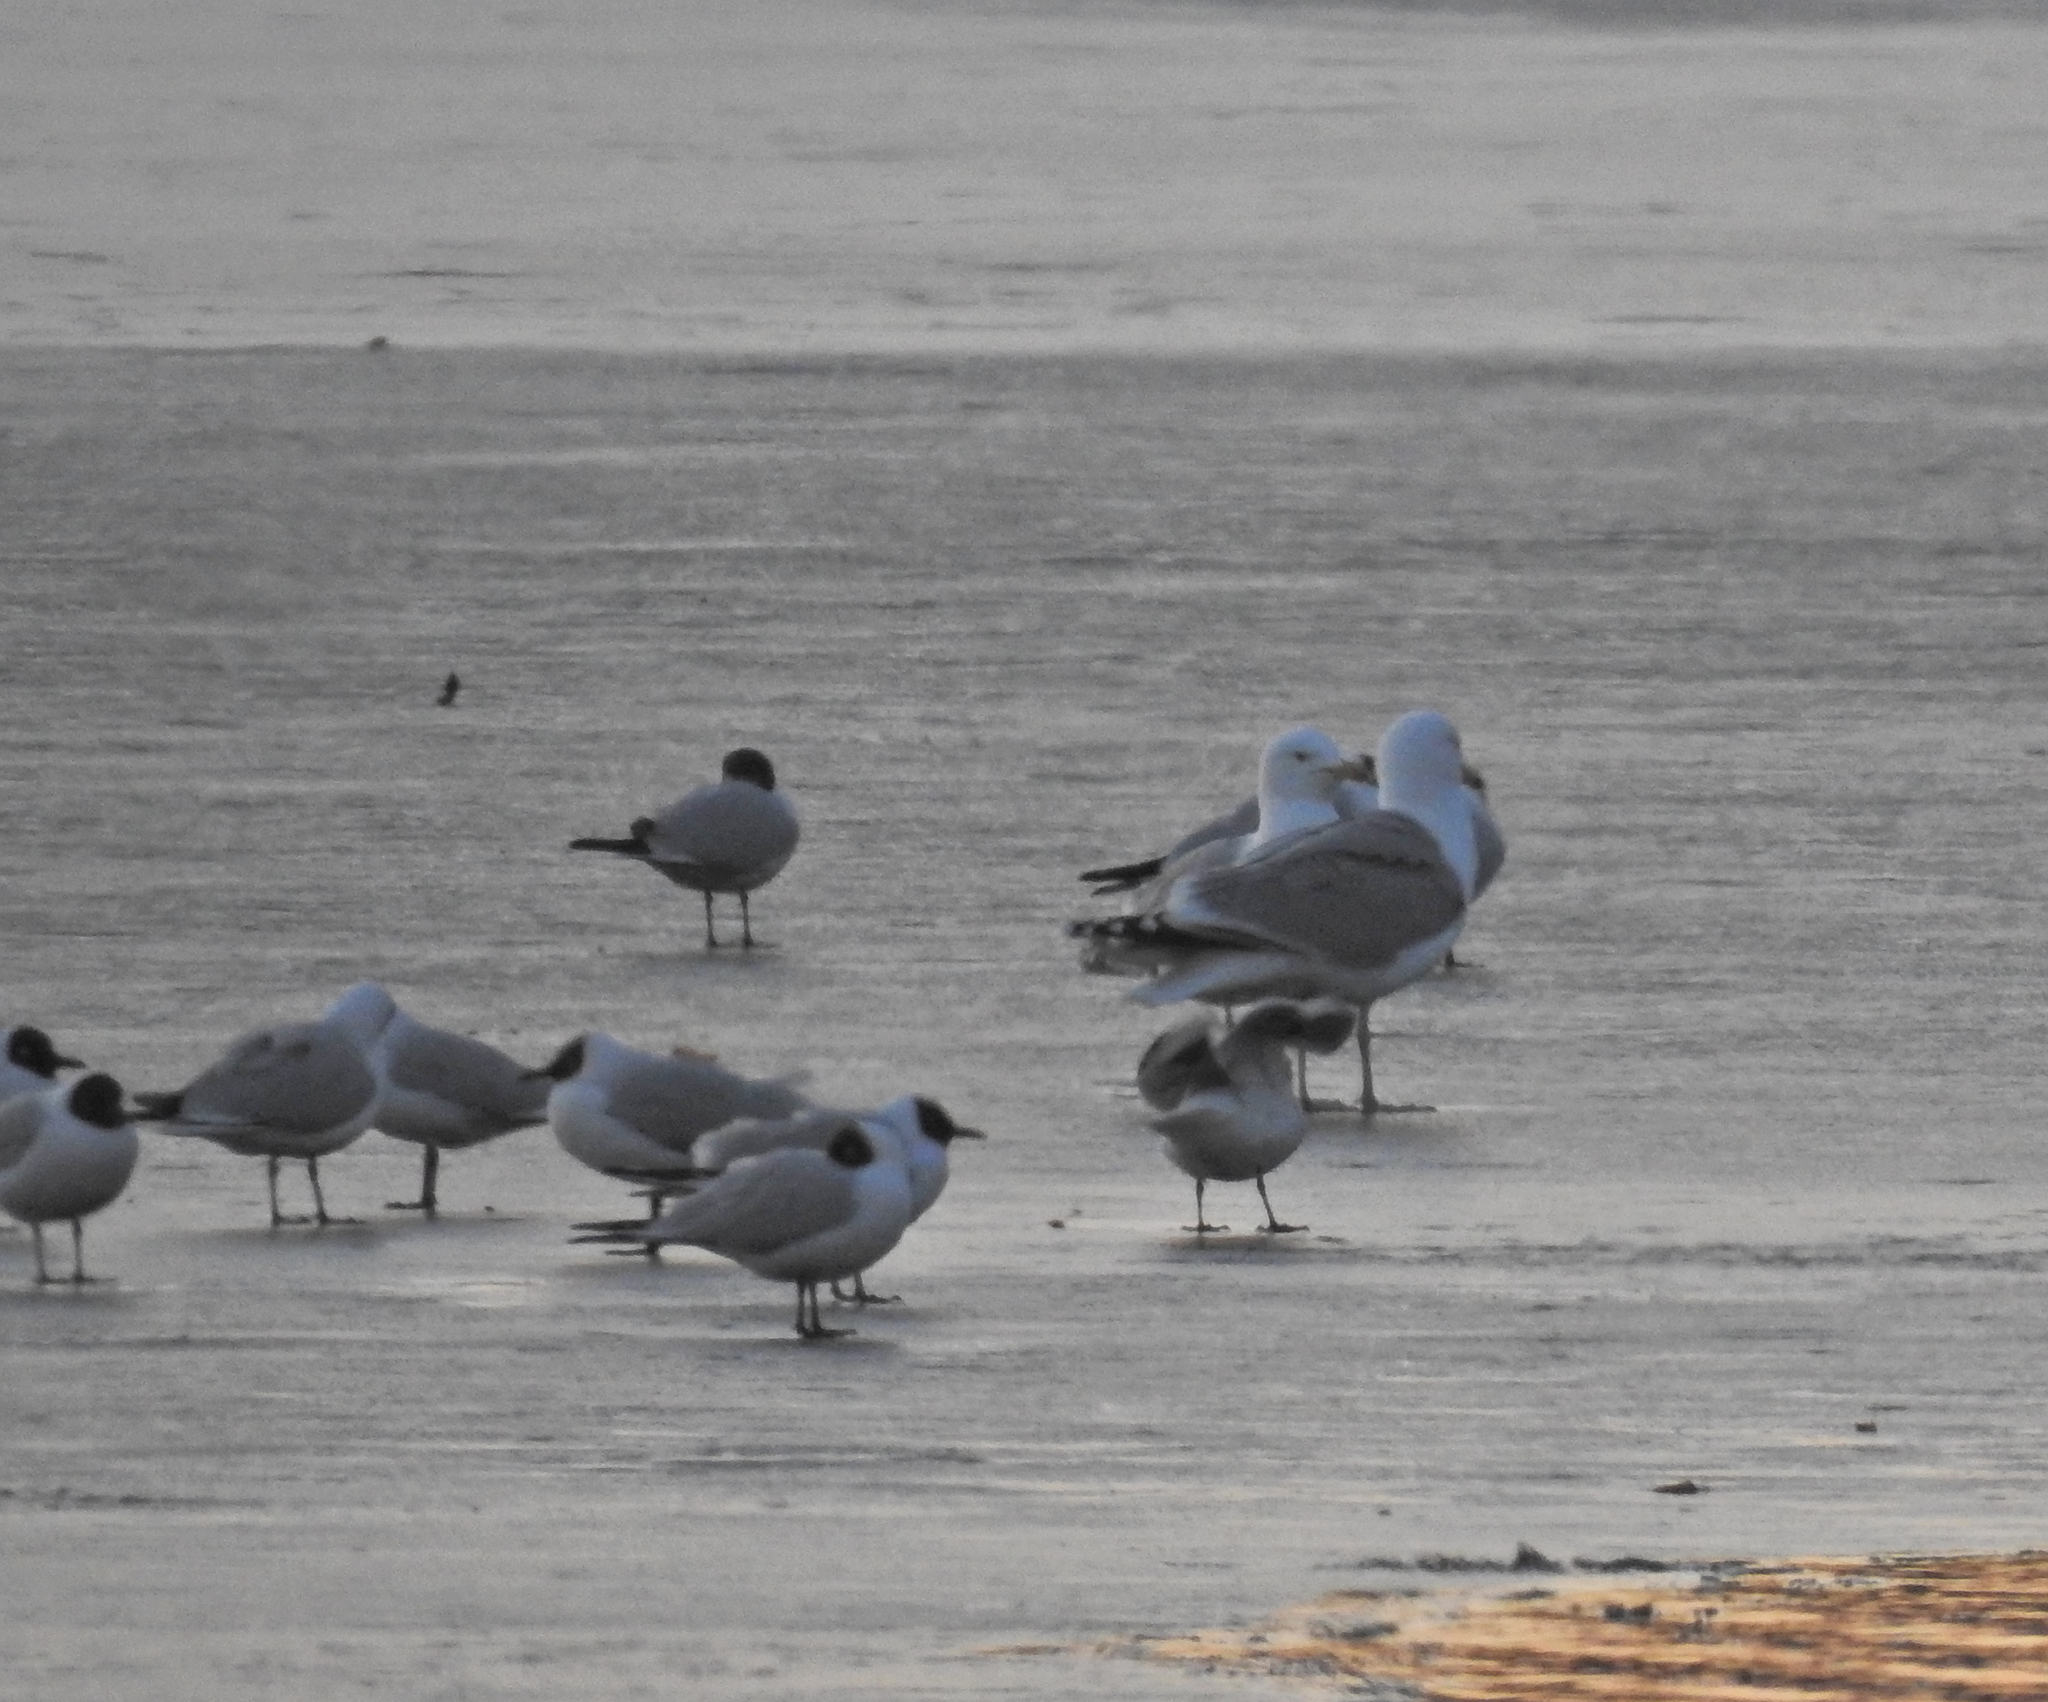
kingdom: Animalia
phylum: Chordata
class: Aves
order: Charadriiformes
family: Laridae
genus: Chroicocephalus
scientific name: Chroicocephalus ridibundus
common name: Black-headed gull
